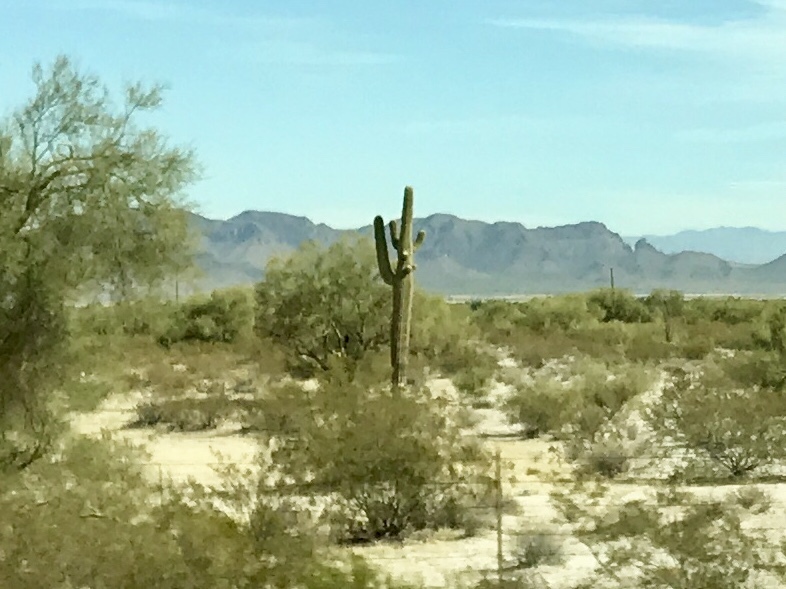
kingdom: Plantae
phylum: Tracheophyta
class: Magnoliopsida
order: Caryophyllales
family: Cactaceae
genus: Carnegiea
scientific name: Carnegiea gigantea
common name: Saguaro
